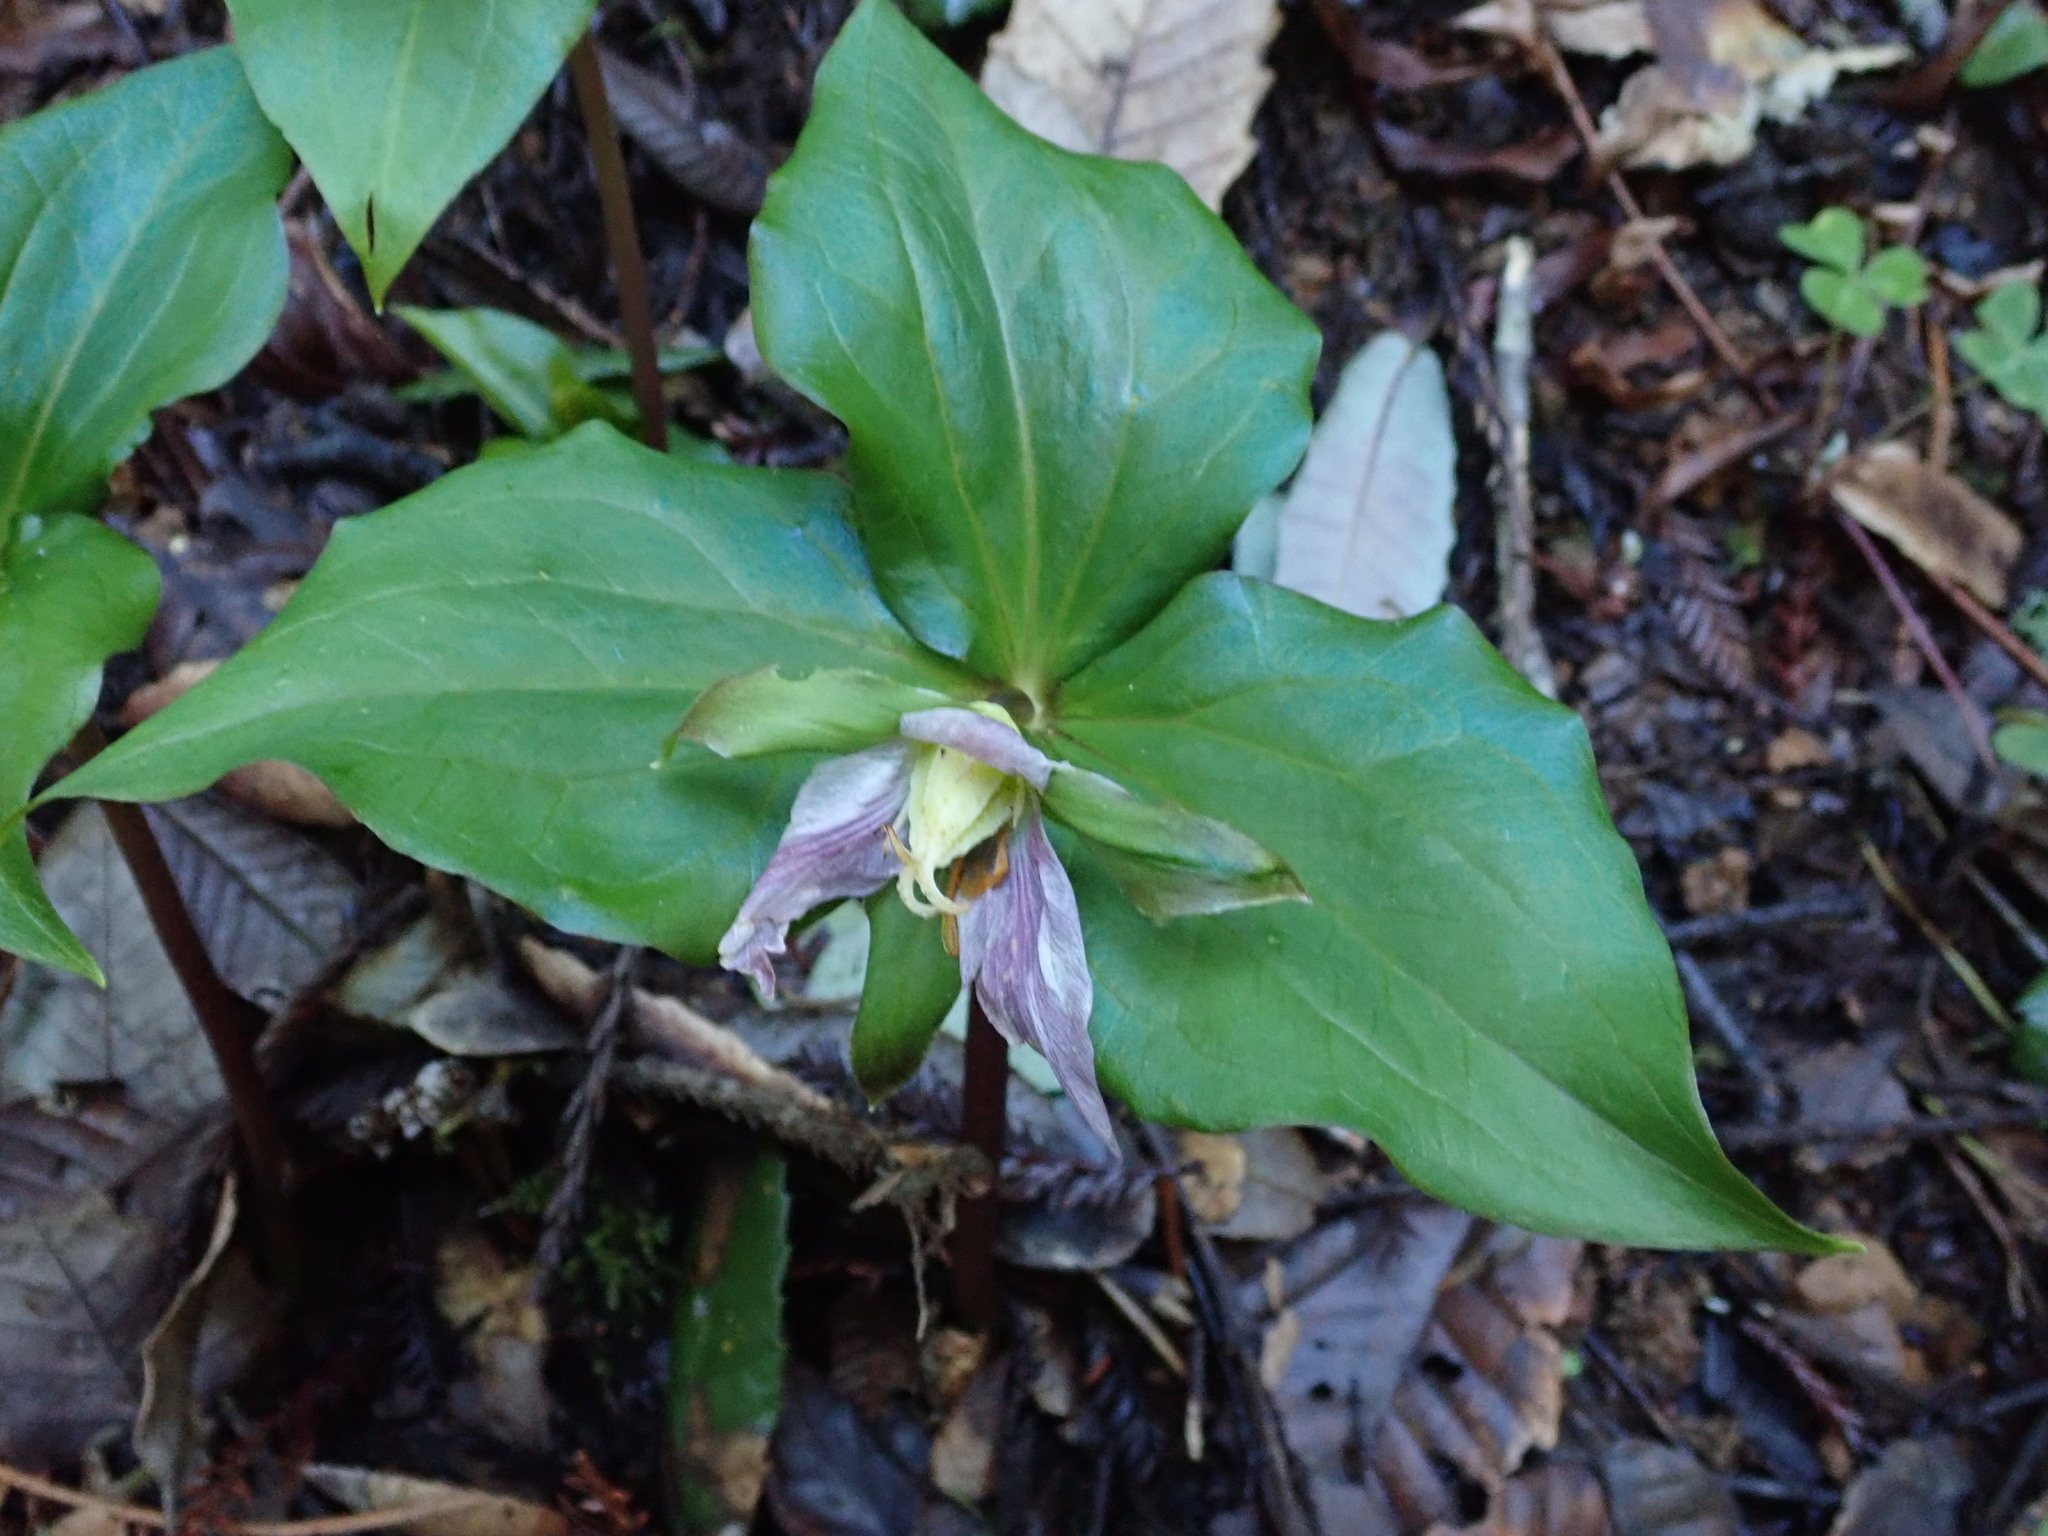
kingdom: Plantae
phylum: Tracheophyta
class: Liliopsida
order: Liliales
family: Melanthiaceae
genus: Trillium
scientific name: Trillium ovatum
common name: Pacific trillium
